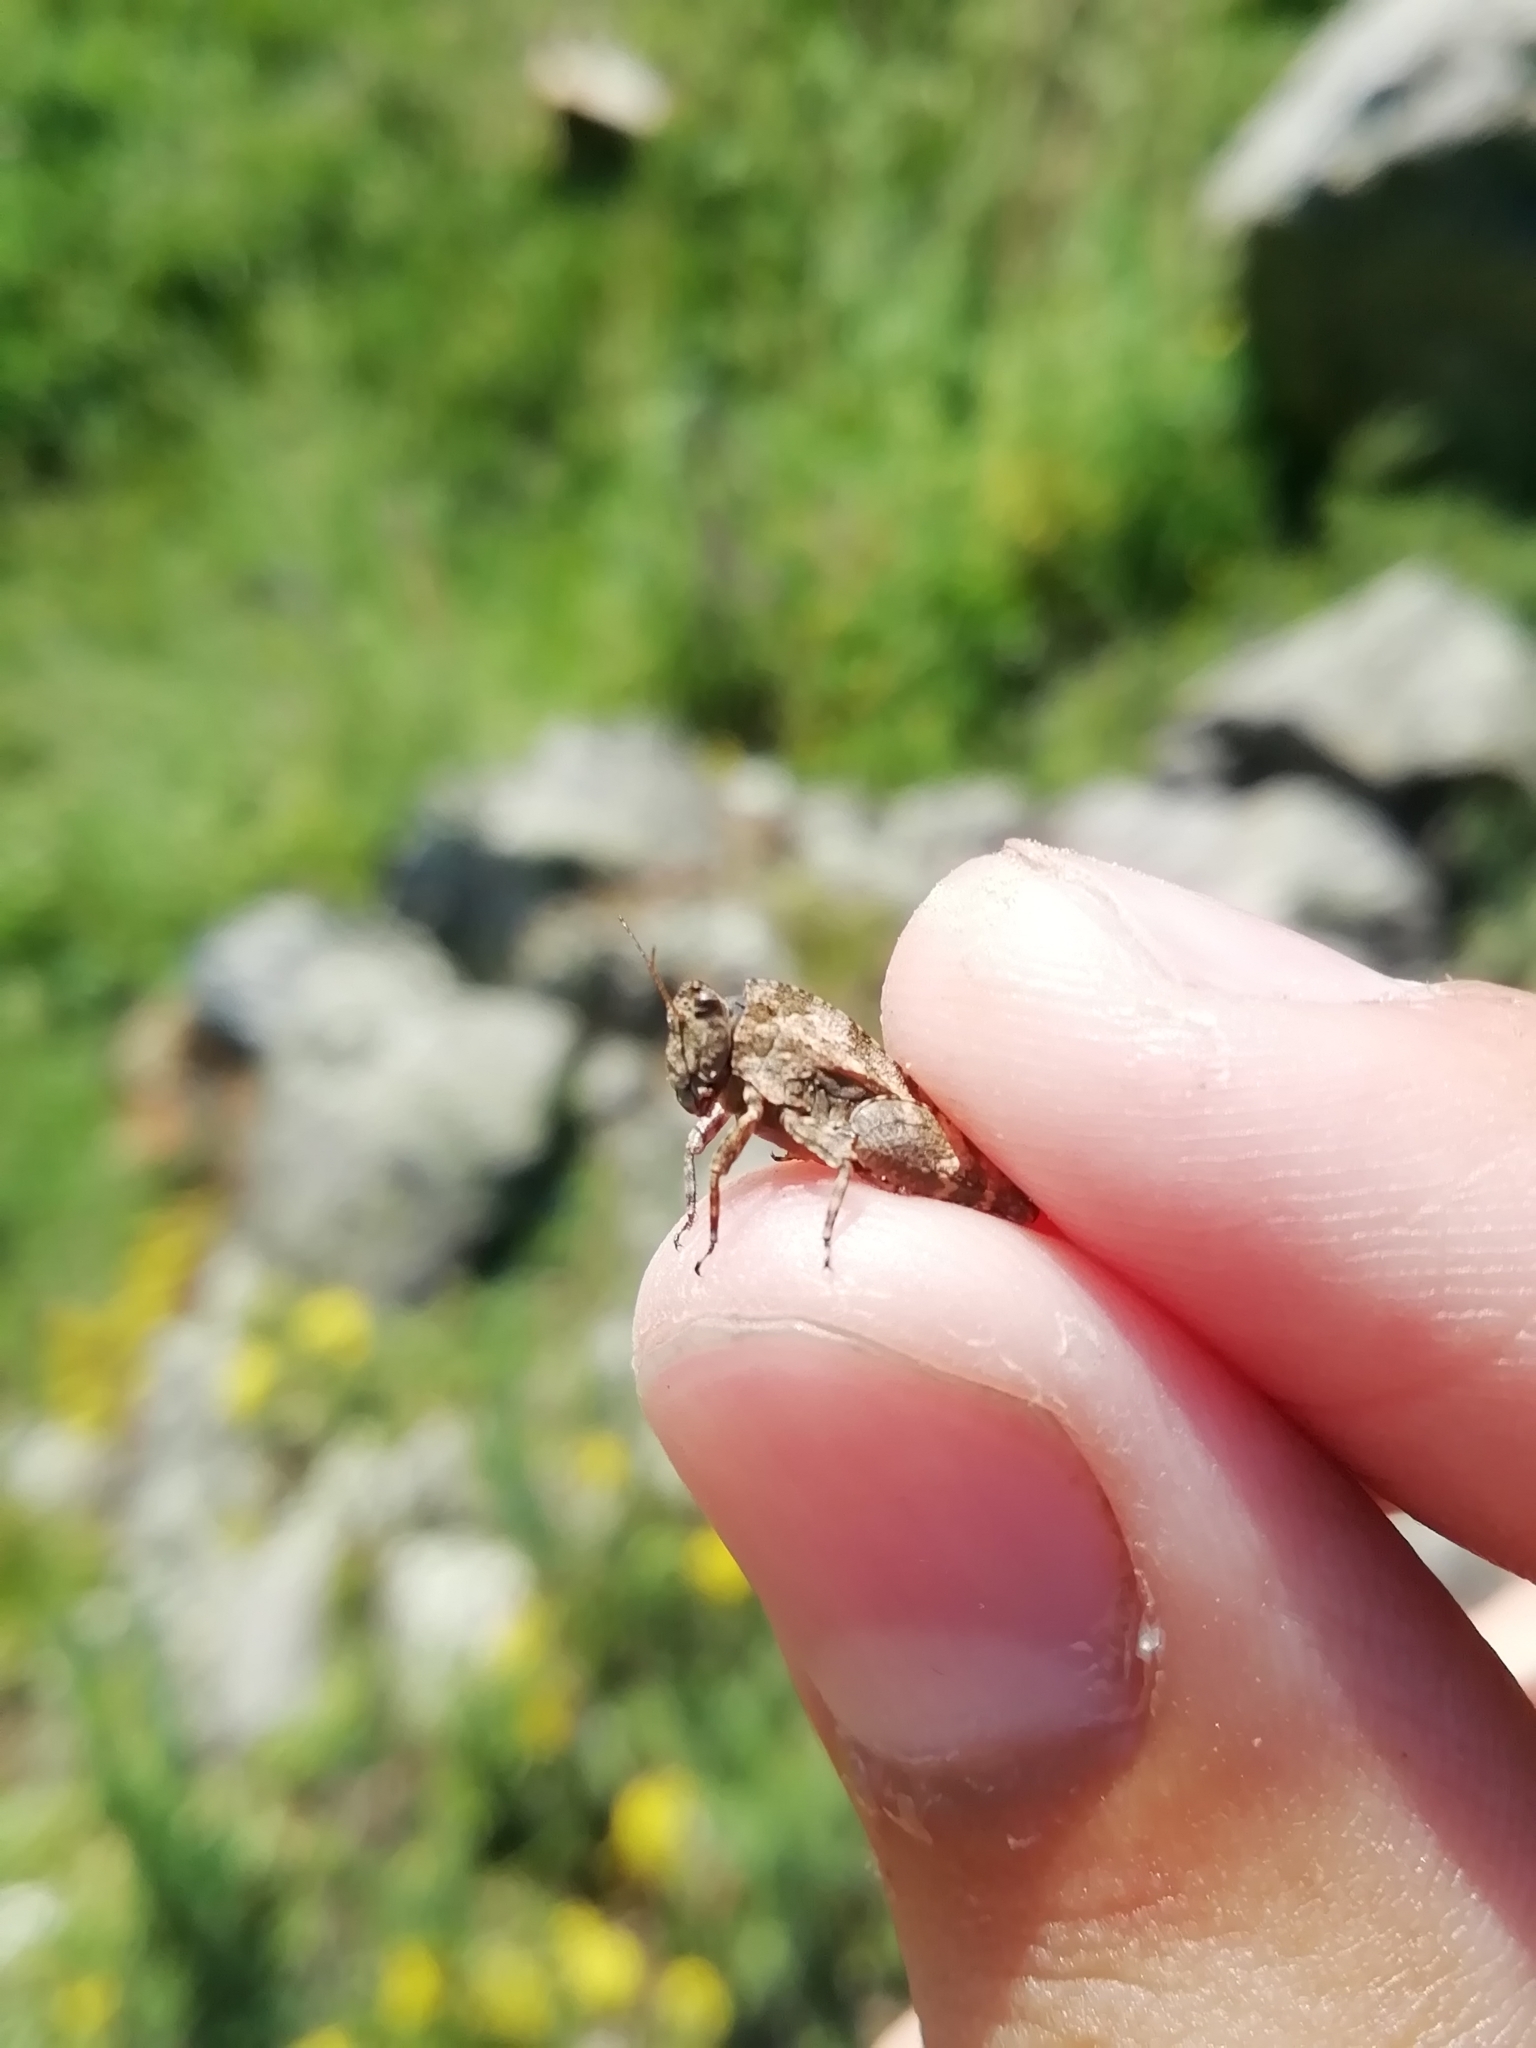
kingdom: Animalia
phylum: Arthropoda
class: Insecta
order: Orthoptera
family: Tetrigidae
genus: Tetrix
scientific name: Tetrix tenuicornis
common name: Long-horned groundhopper
